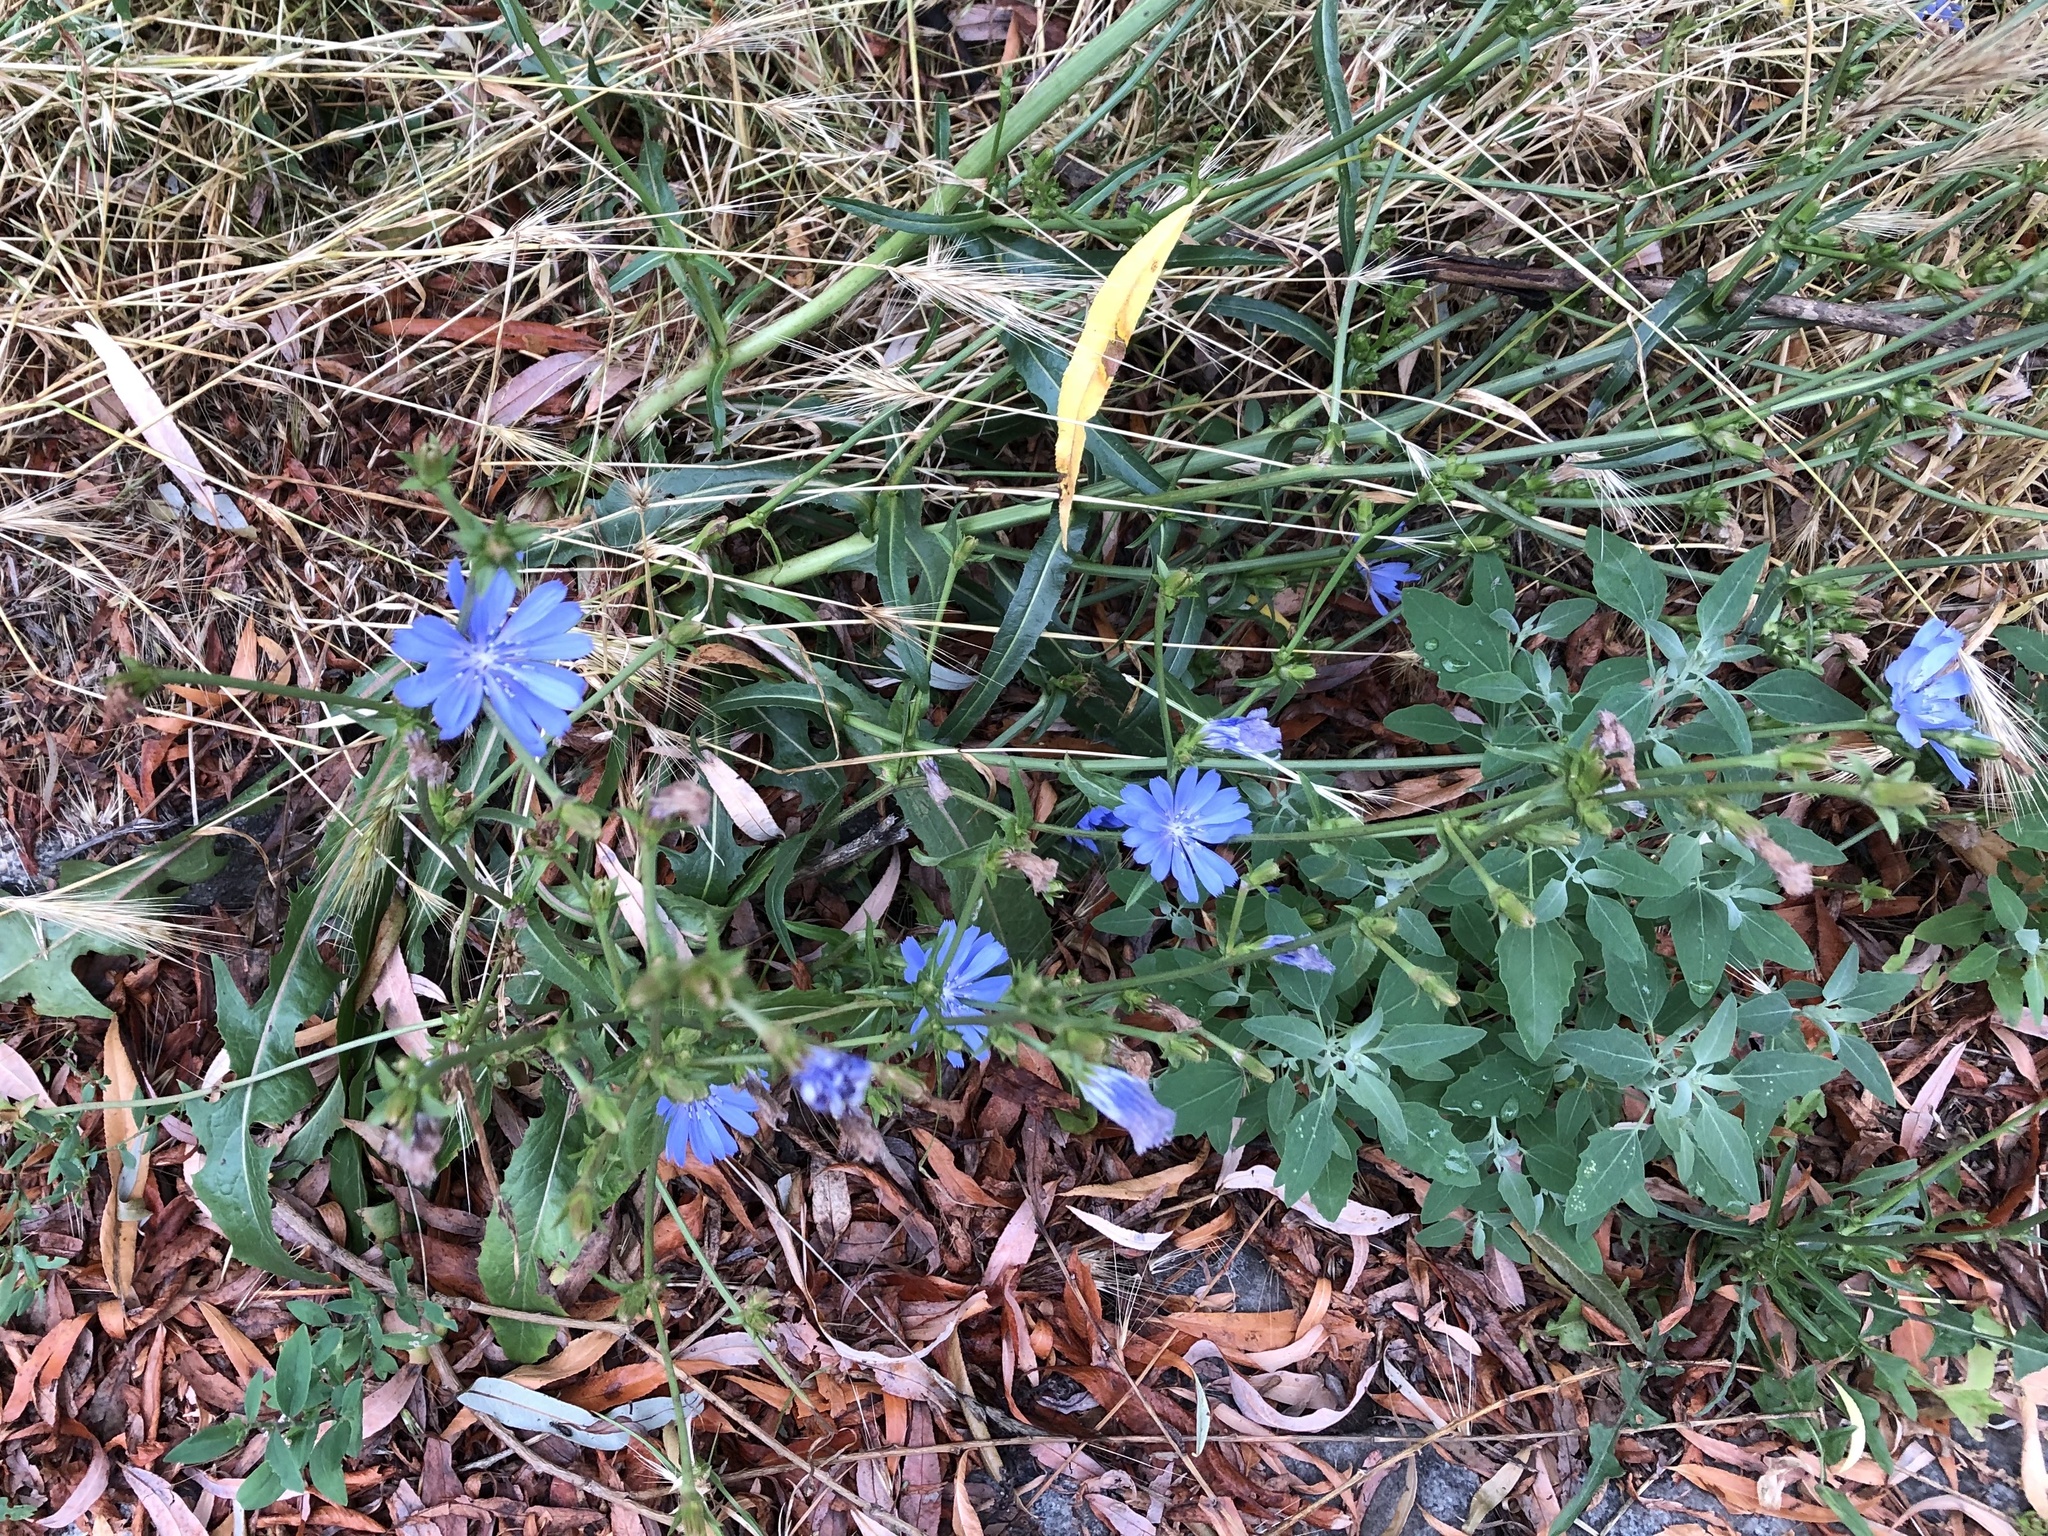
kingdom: Plantae
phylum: Tracheophyta
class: Magnoliopsida
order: Asterales
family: Asteraceae
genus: Cichorium
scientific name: Cichorium intybus
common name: Chicory
